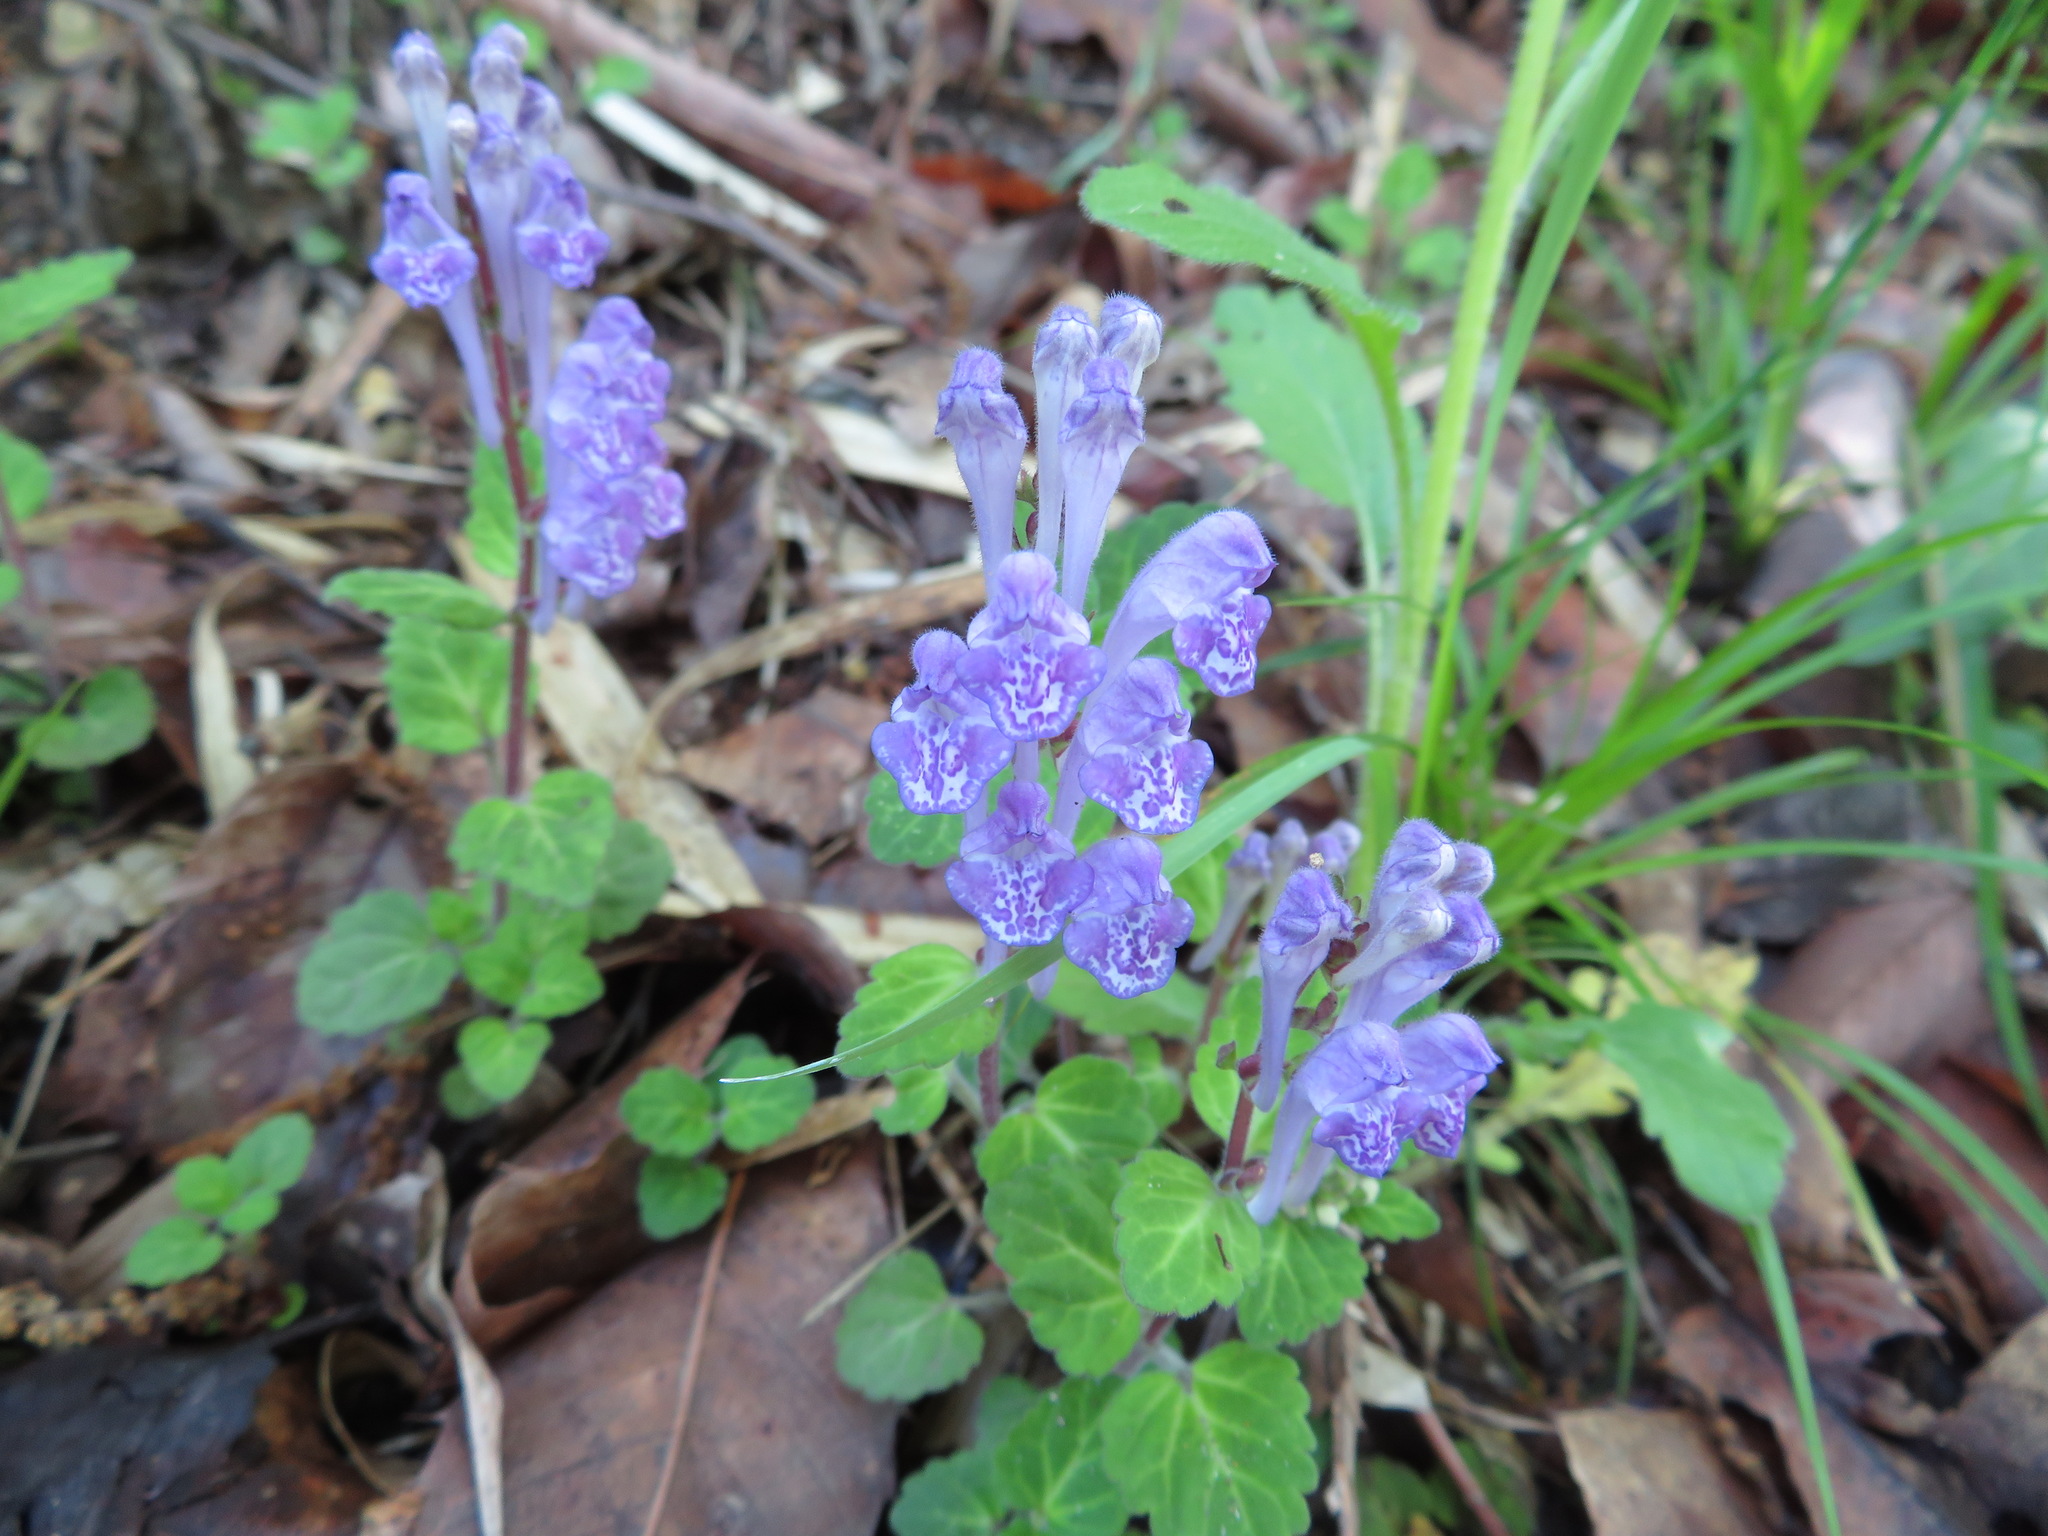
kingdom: Plantae
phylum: Tracheophyta
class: Magnoliopsida
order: Lamiales
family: Lamiaceae
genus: Scutellaria
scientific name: Scutellaria indica
